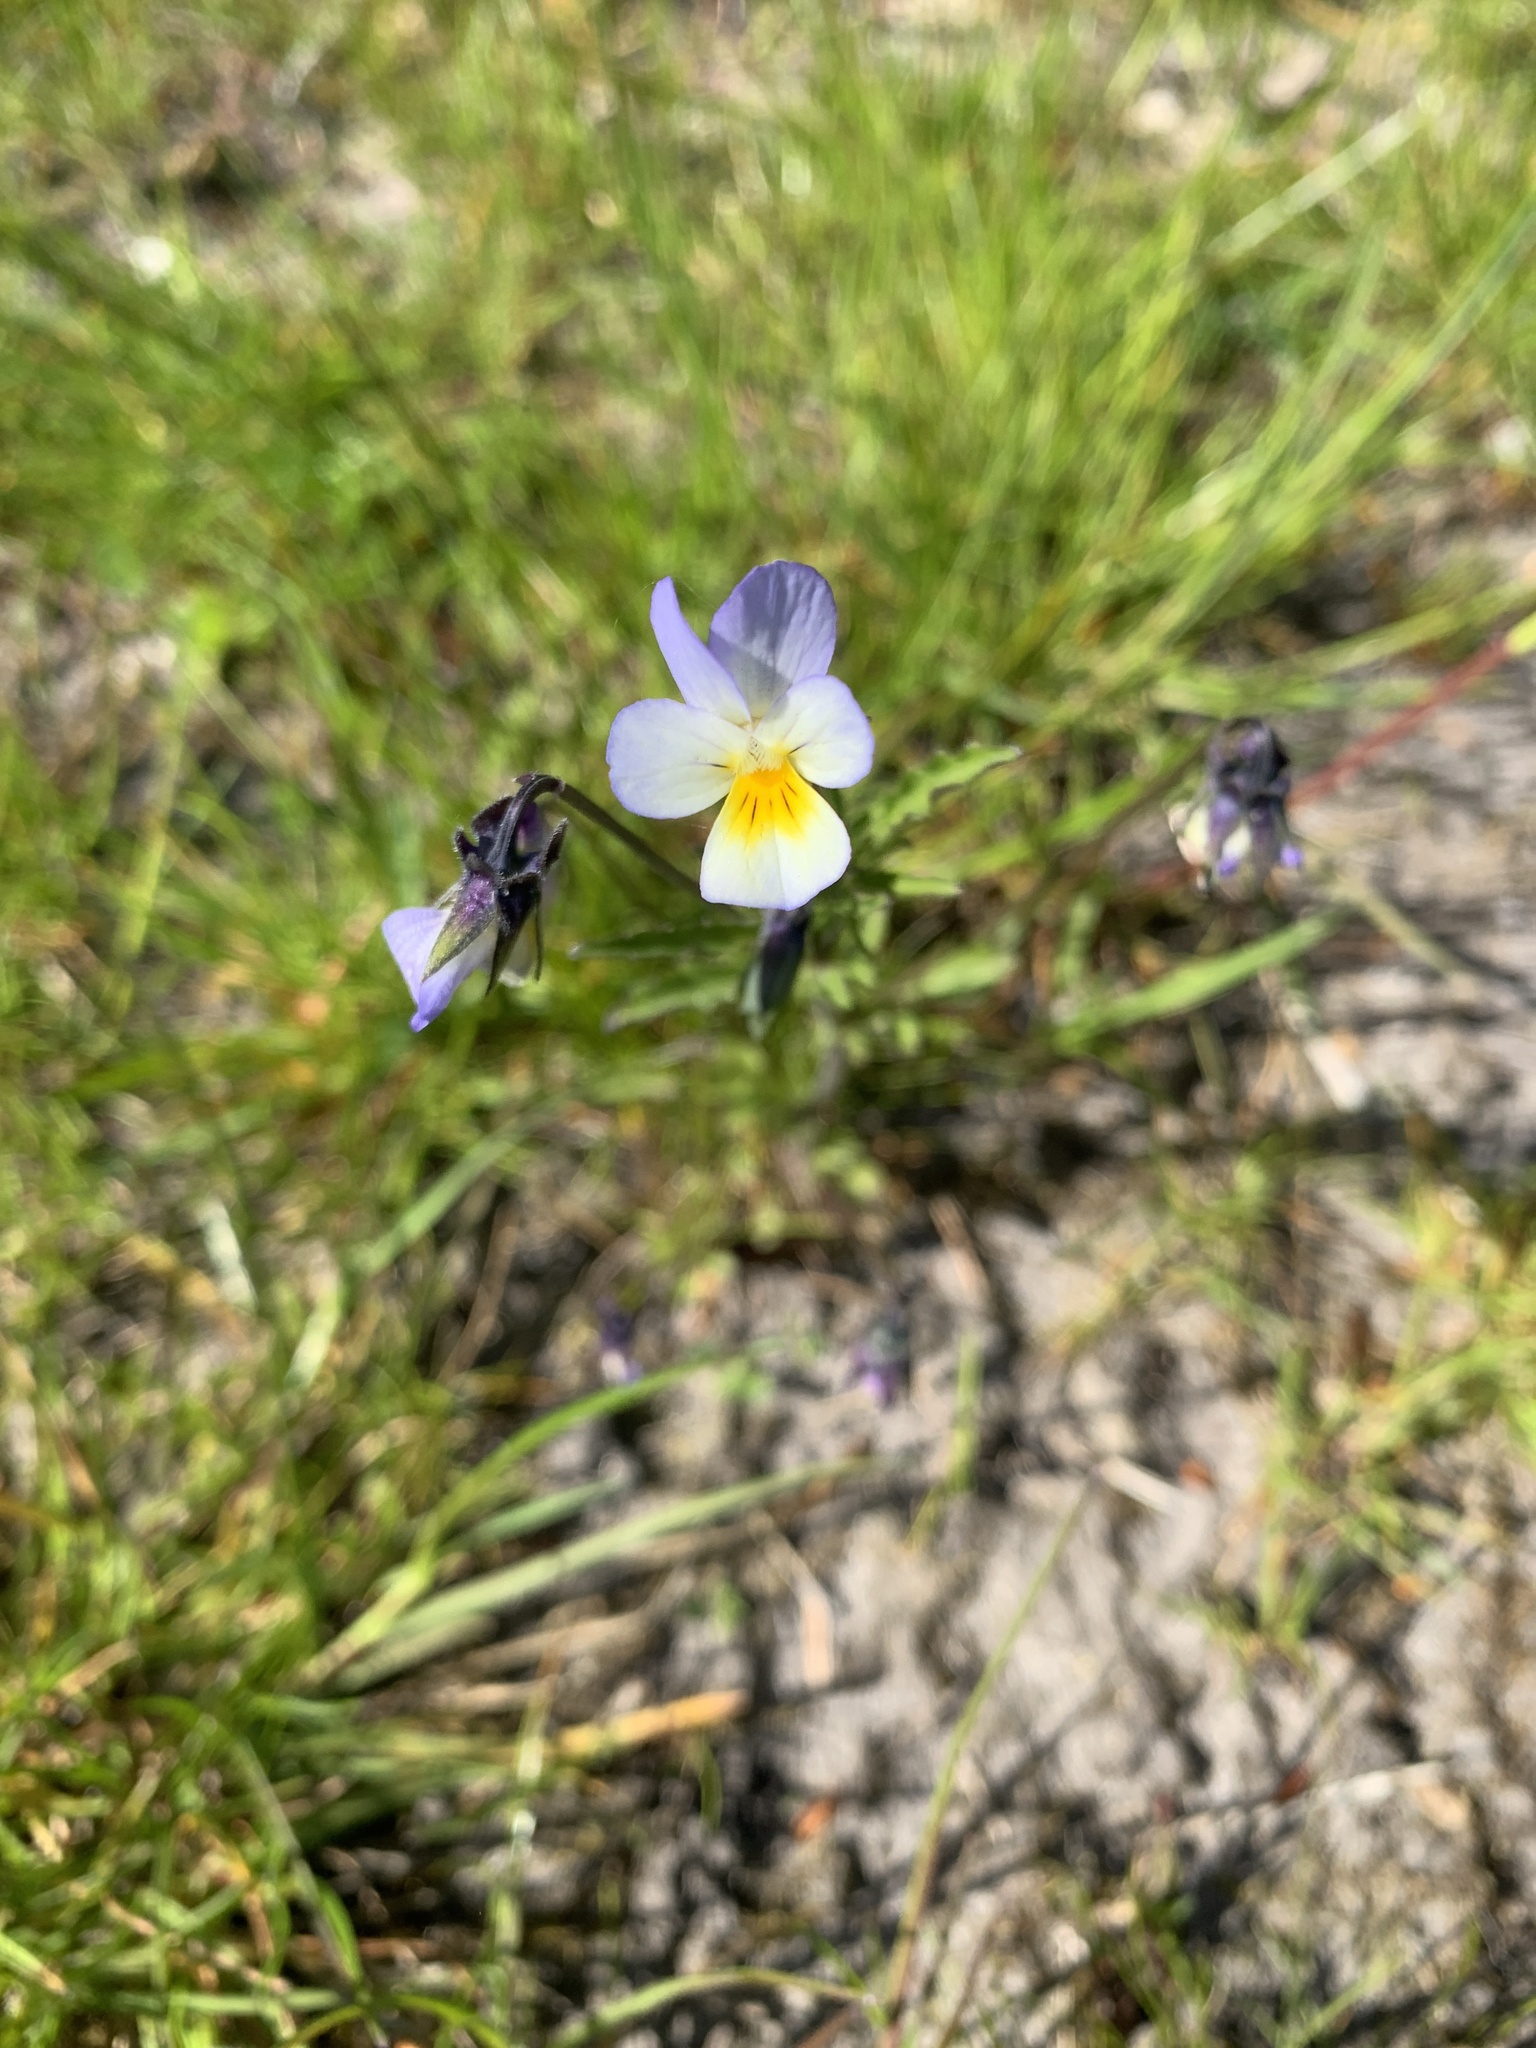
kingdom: Plantae
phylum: Tracheophyta
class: Magnoliopsida
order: Malpighiales
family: Violaceae
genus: Viola
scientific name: Viola tricolor
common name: Pansy
